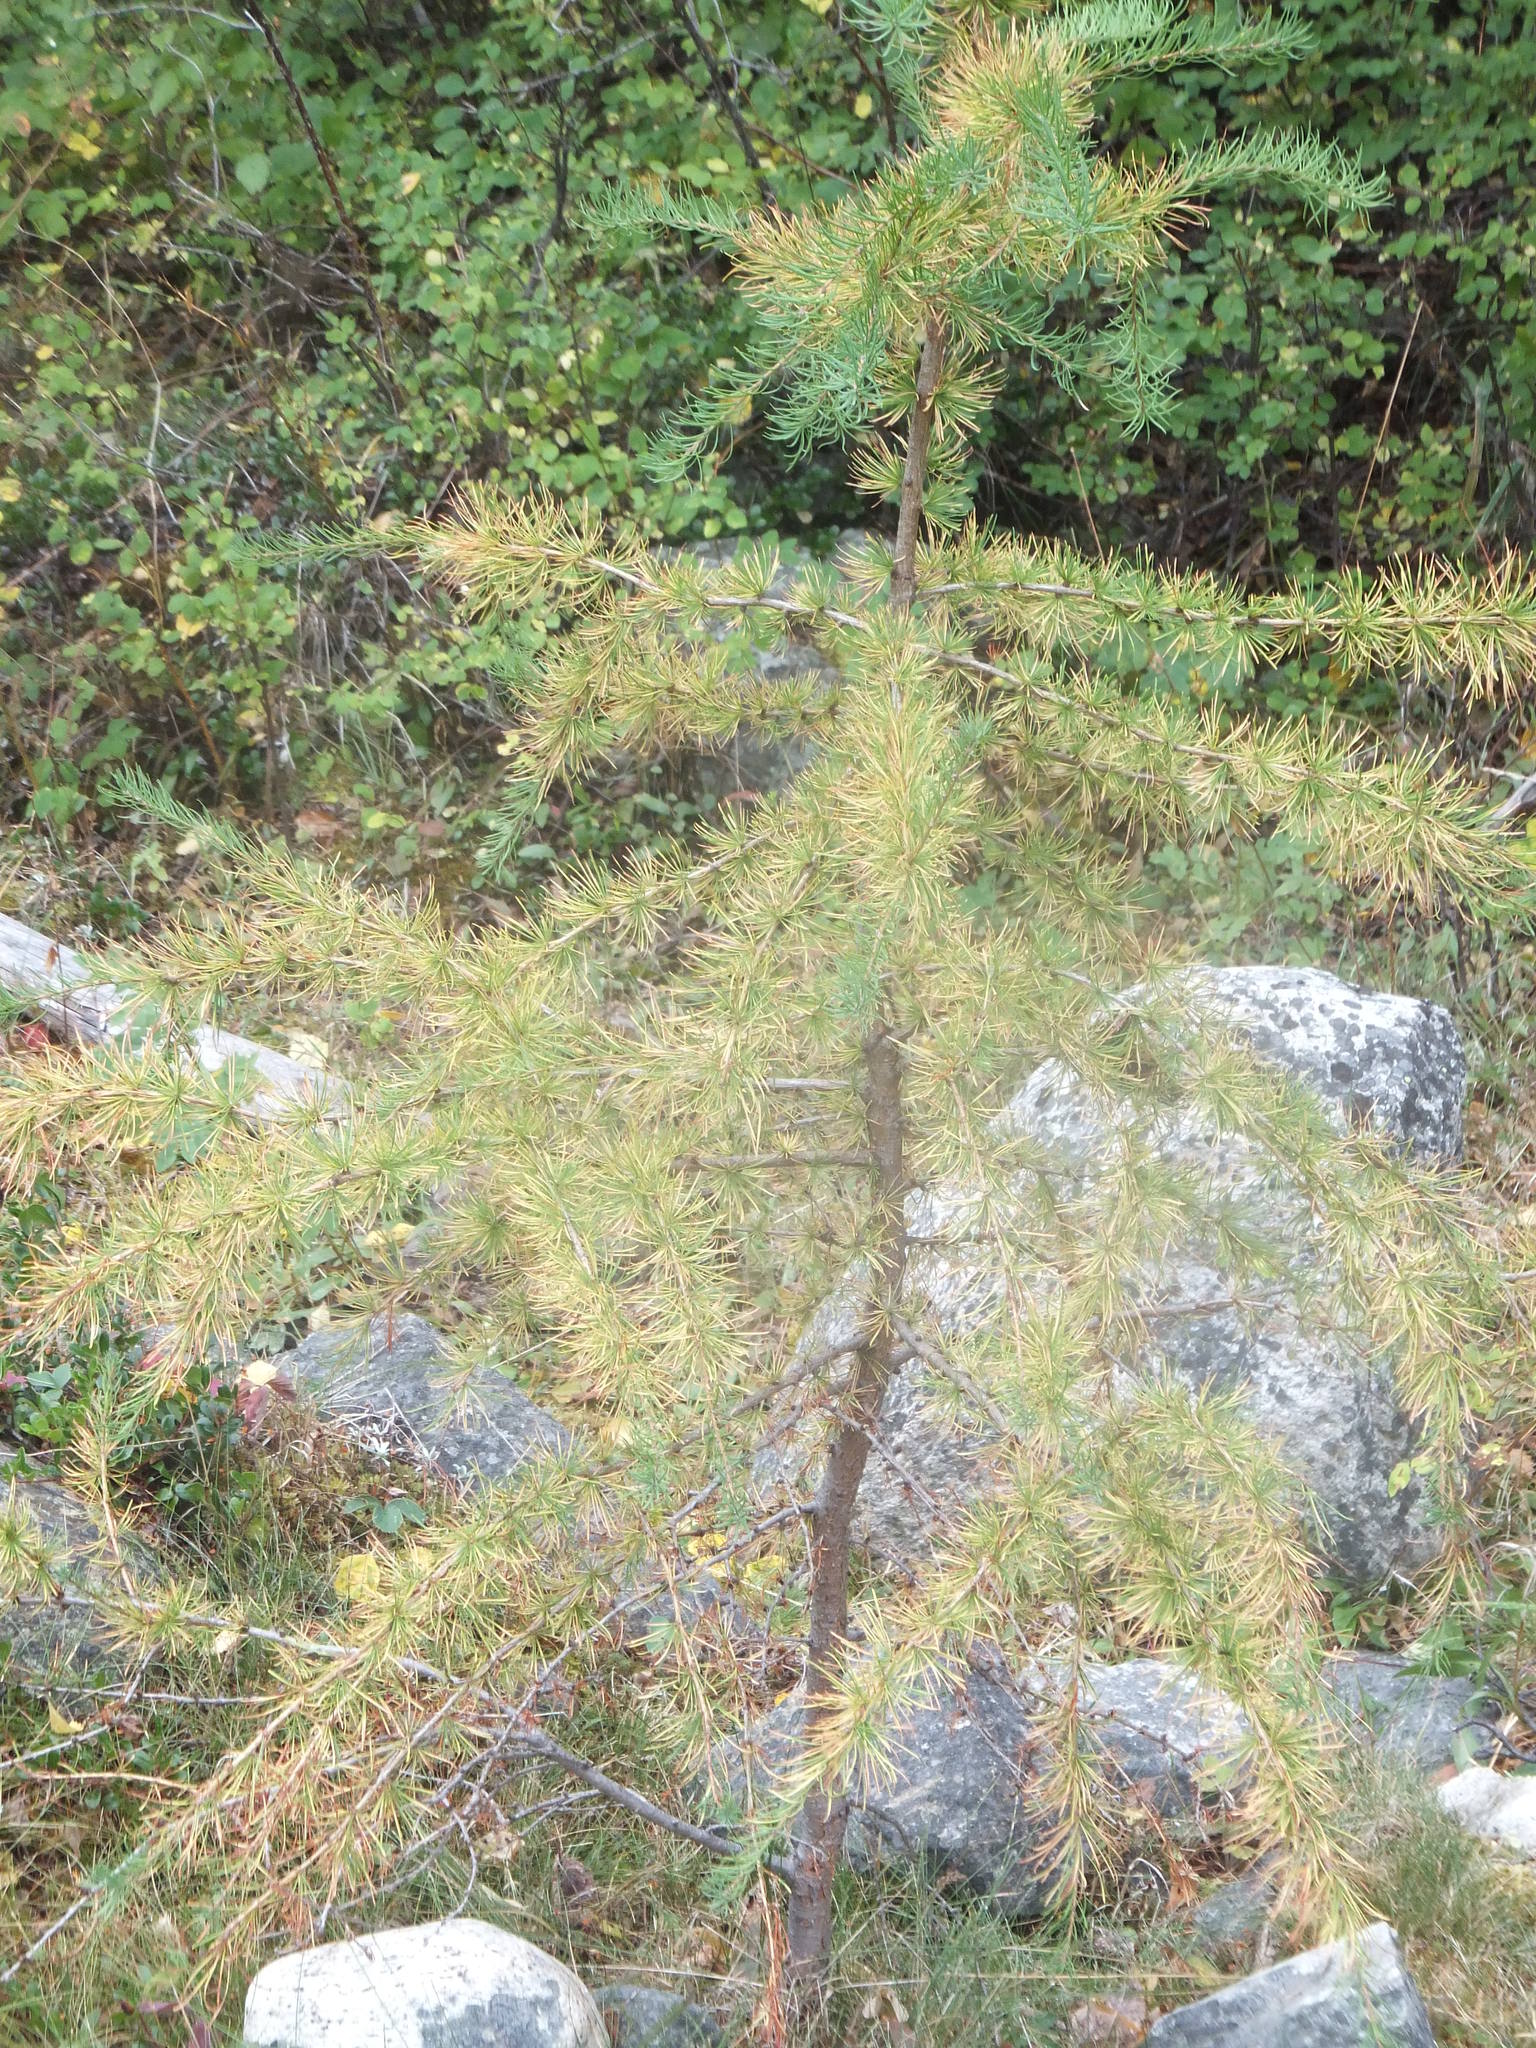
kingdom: Plantae
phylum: Tracheophyta
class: Pinopsida
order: Pinales
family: Pinaceae
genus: Larix
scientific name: Larix occidentalis
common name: Western larch
